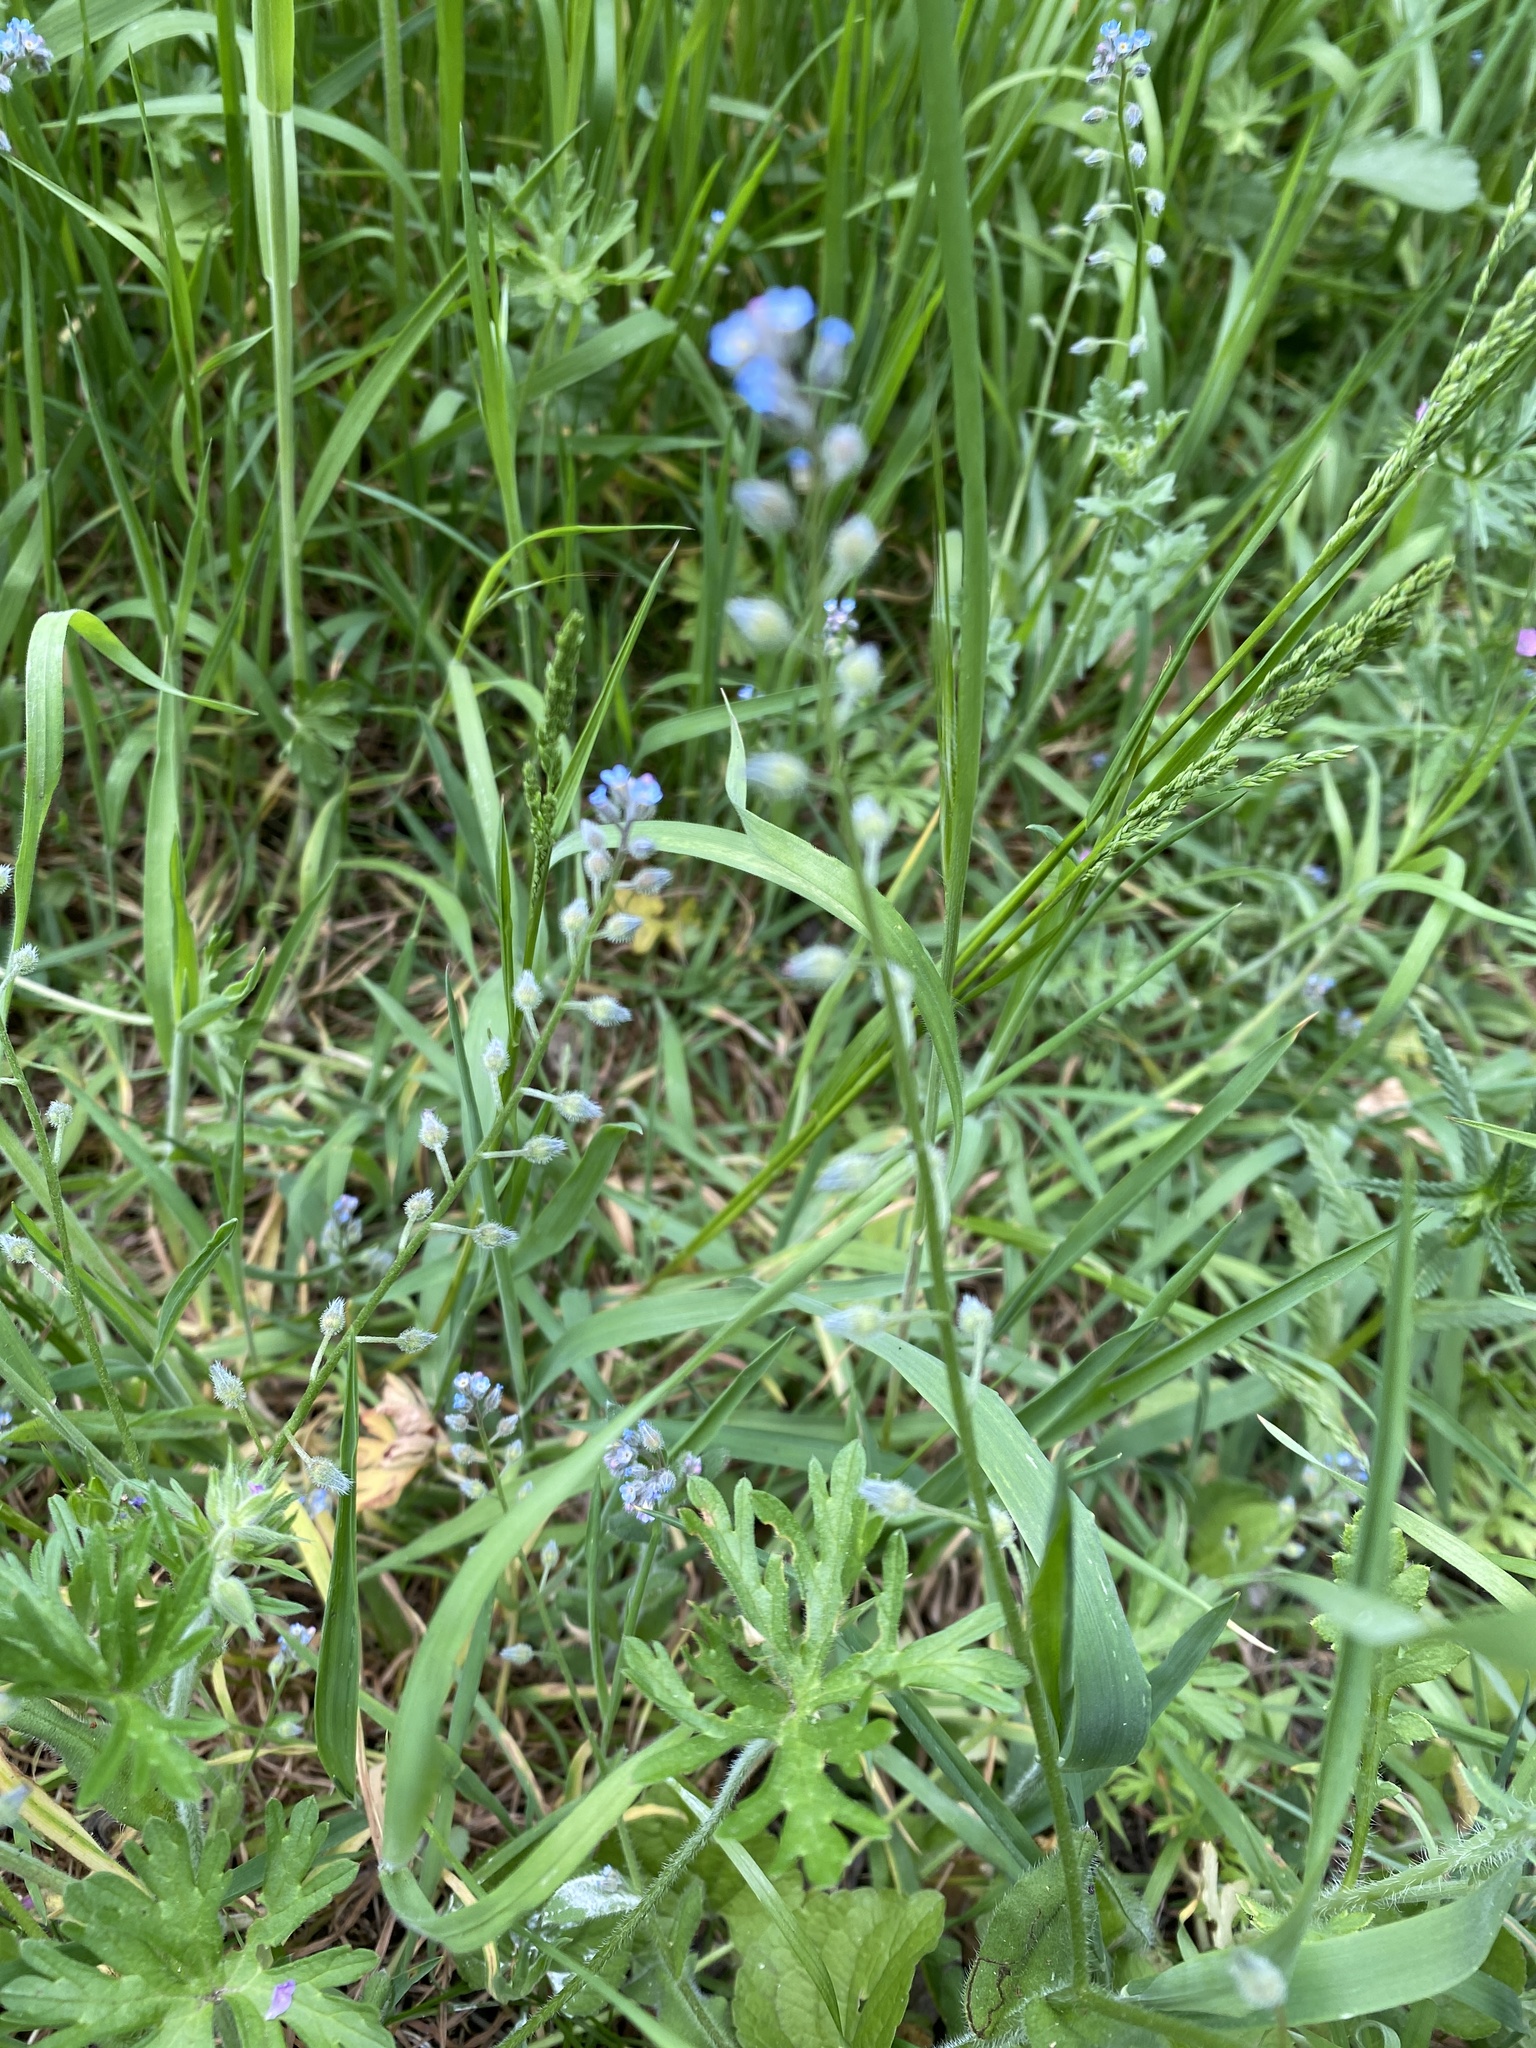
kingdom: Plantae
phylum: Tracheophyta
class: Magnoliopsida
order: Boraginales
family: Boraginaceae
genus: Myosotis
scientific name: Myosotis arvensis
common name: Field forget-me-not
